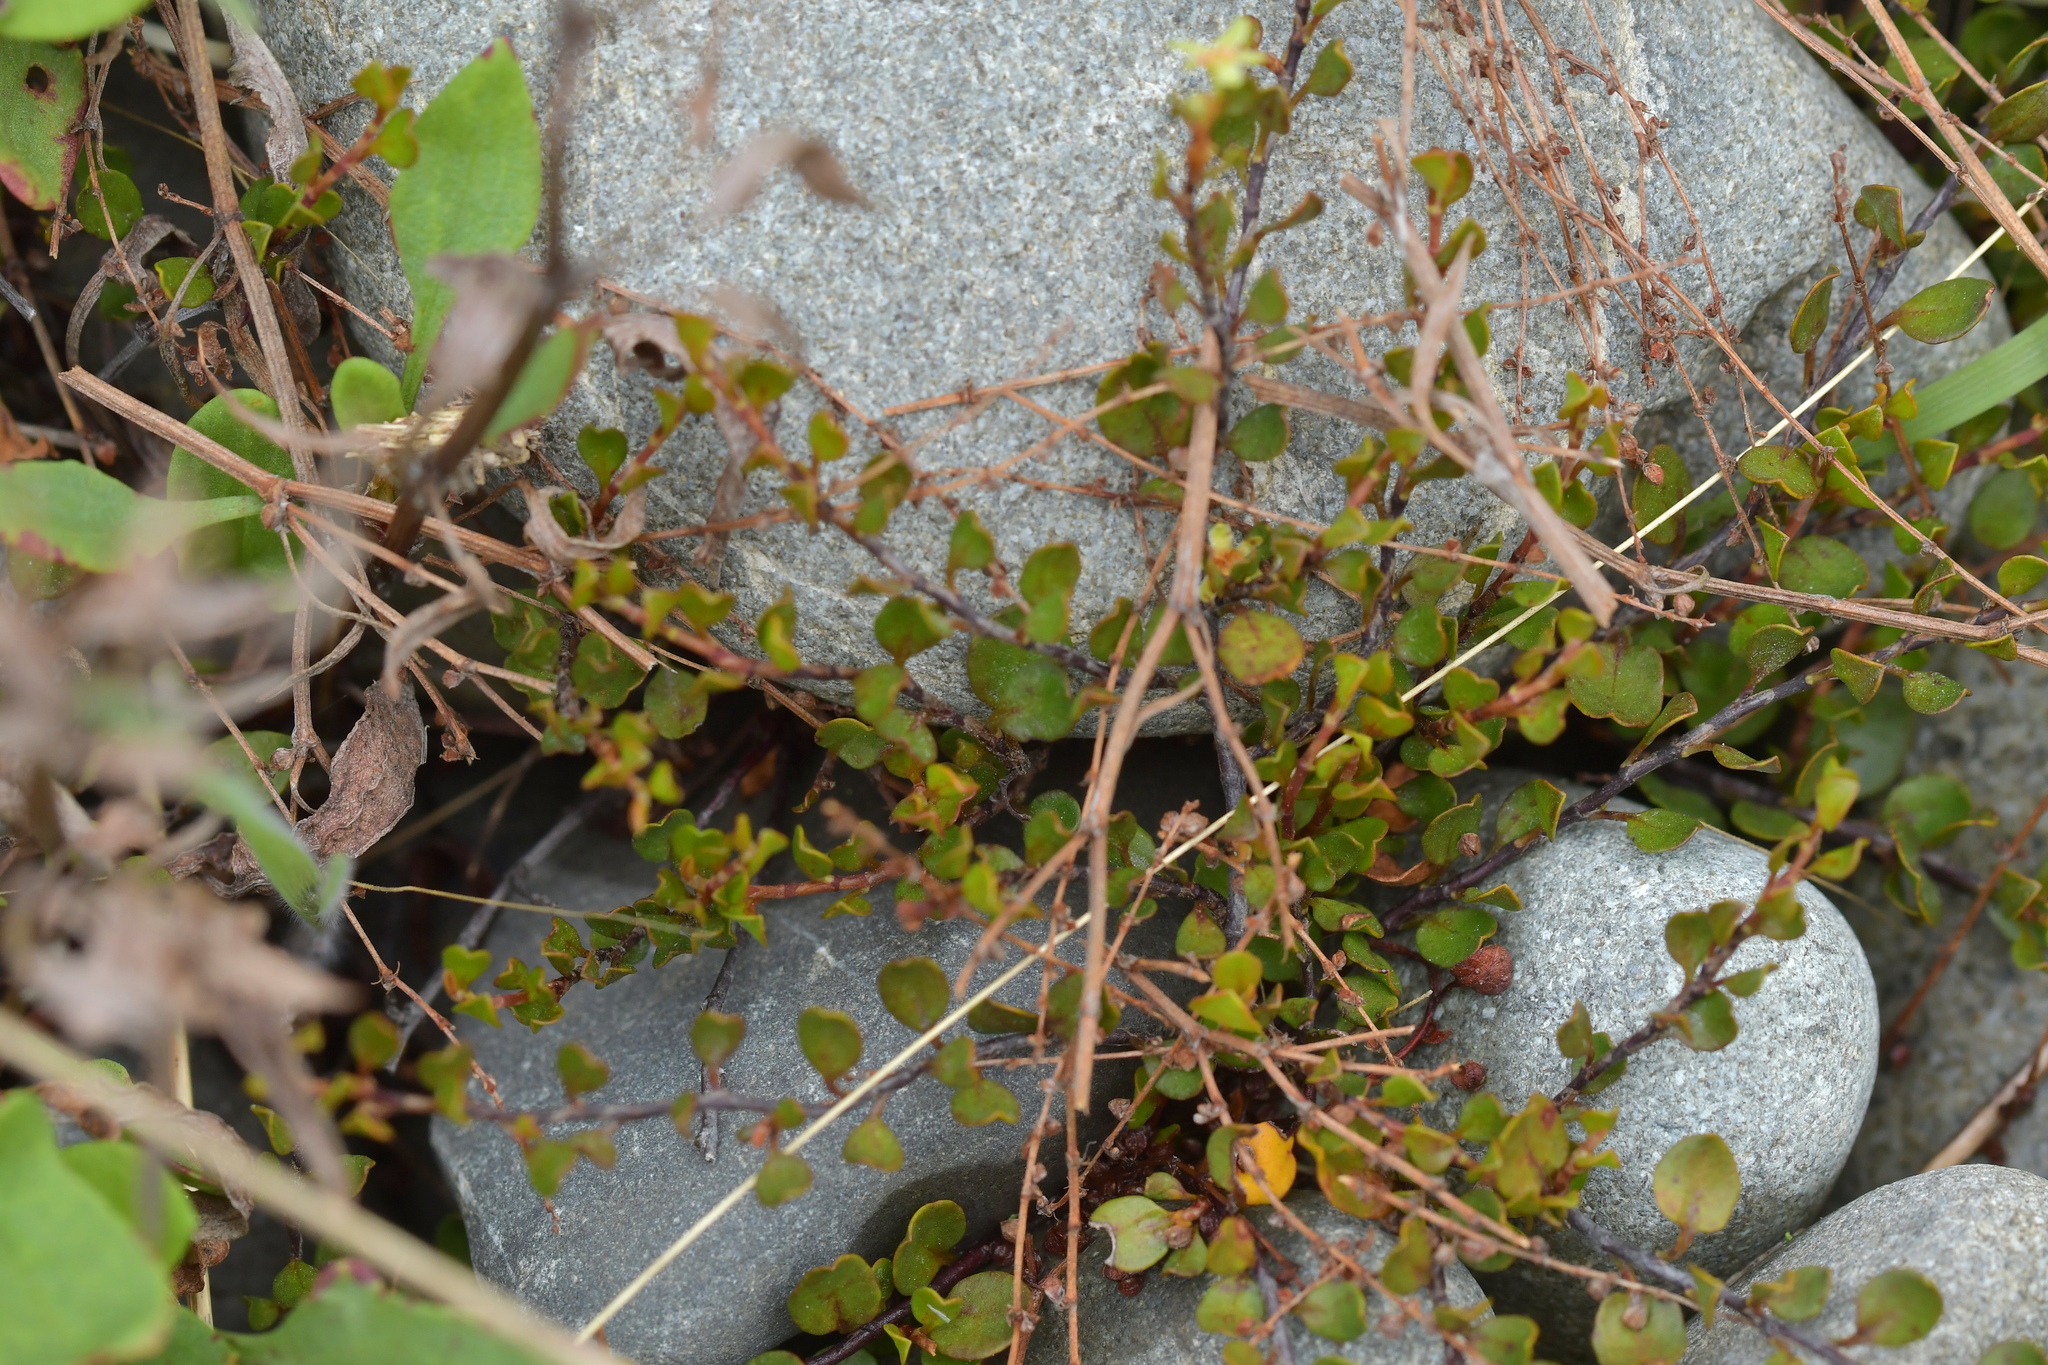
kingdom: Plantae
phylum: Tracheophyta
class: Magnoliopsida
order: Caryophyllales
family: Polygonaceae
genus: Muehlenbeckia
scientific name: Muehlenbeckia axillaris
